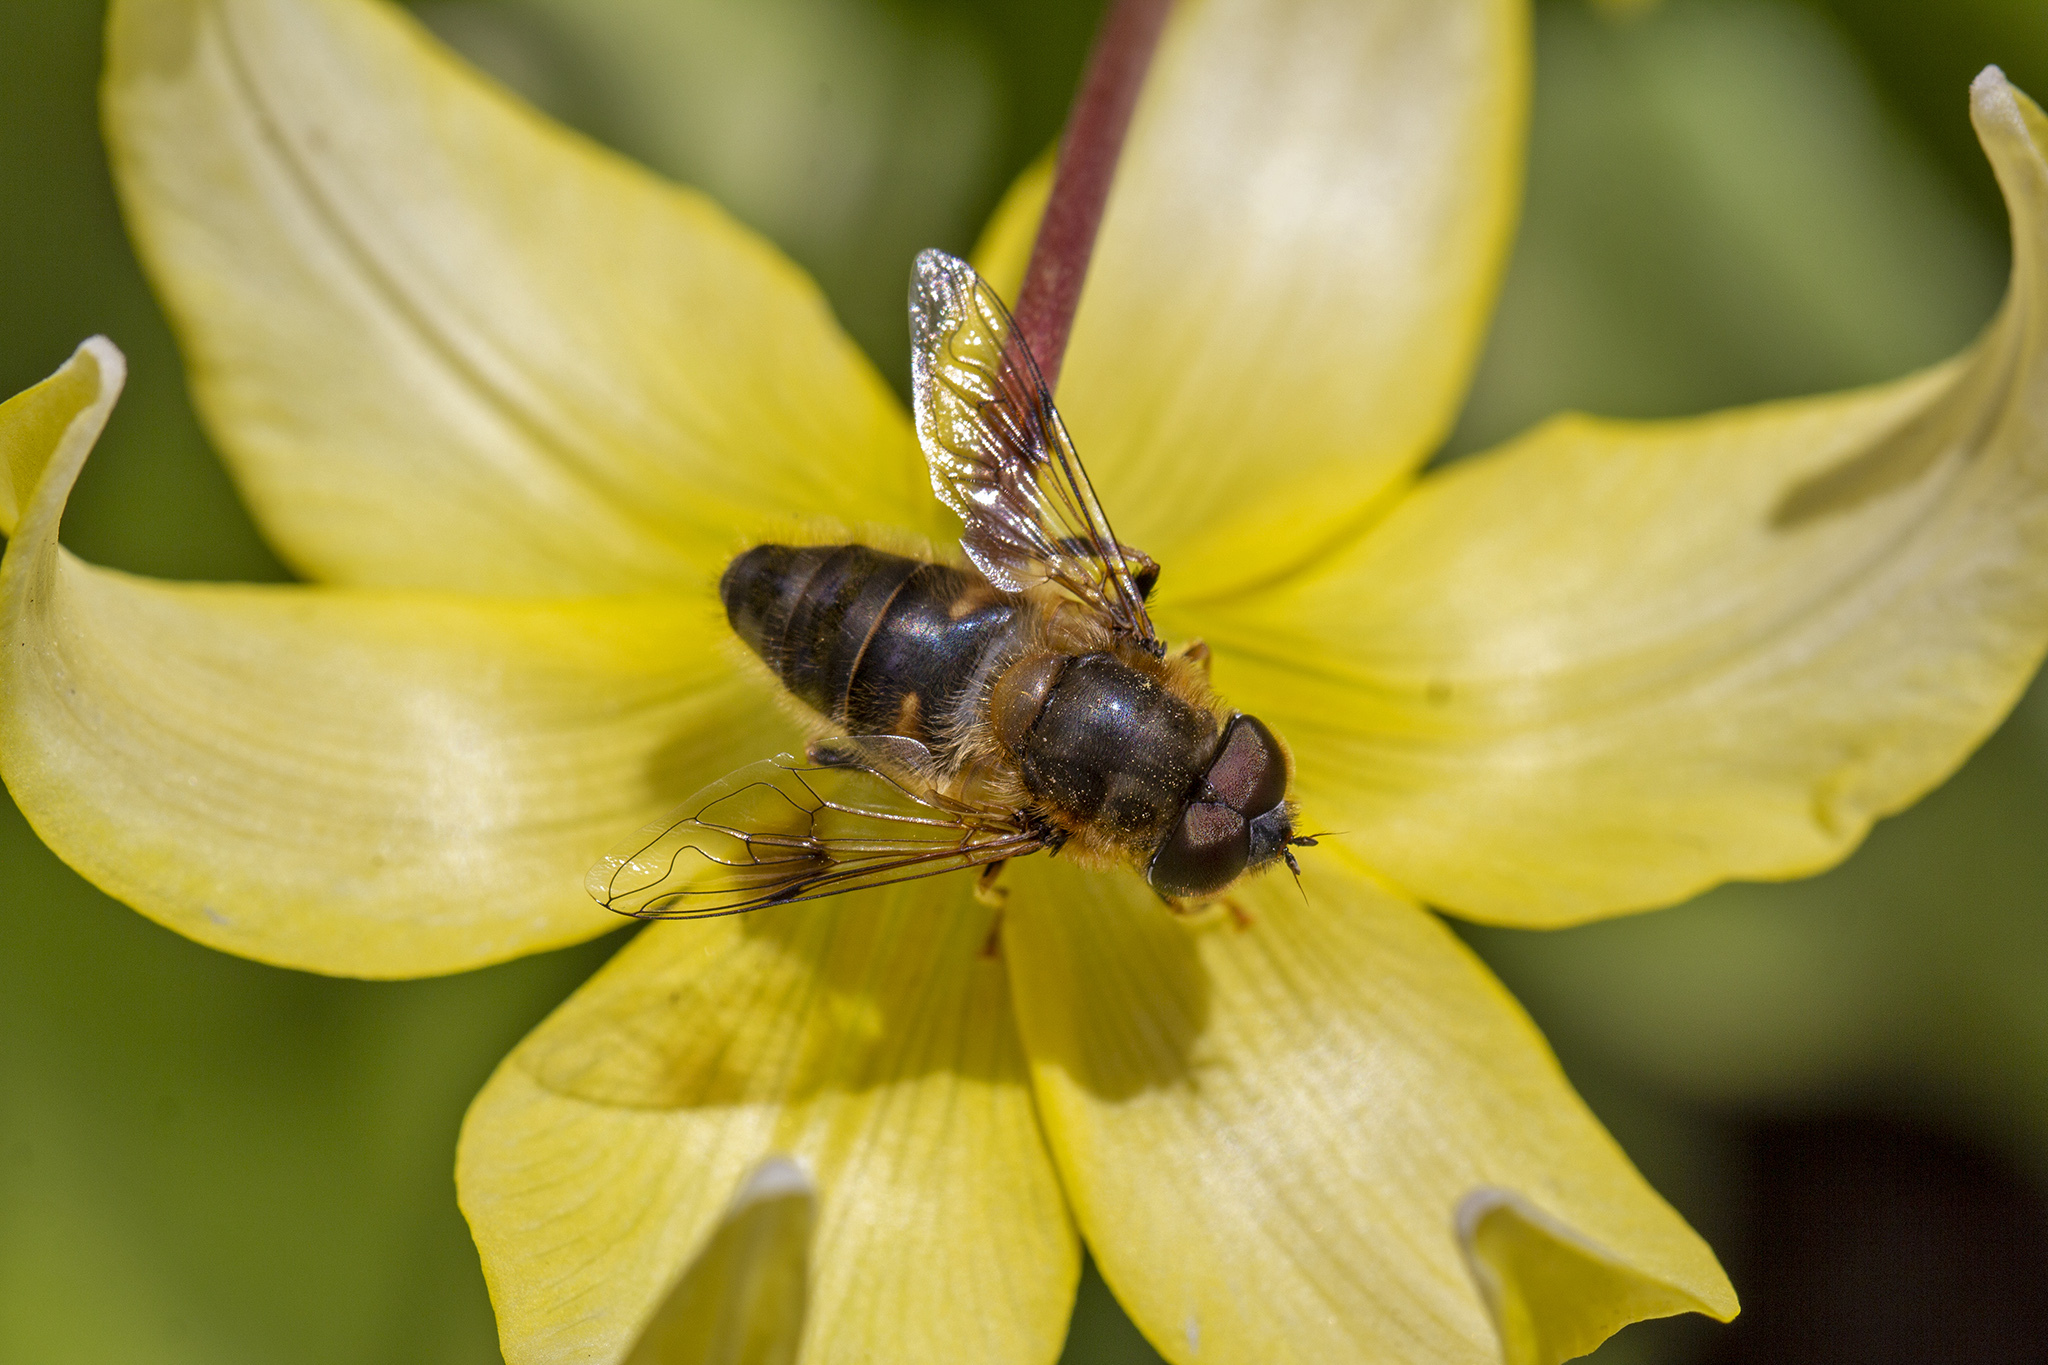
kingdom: Animalia
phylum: Arthropoda
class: Insecta
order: Diptera
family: Syrphidae
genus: Eristalis
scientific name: Eristalis pertinax
